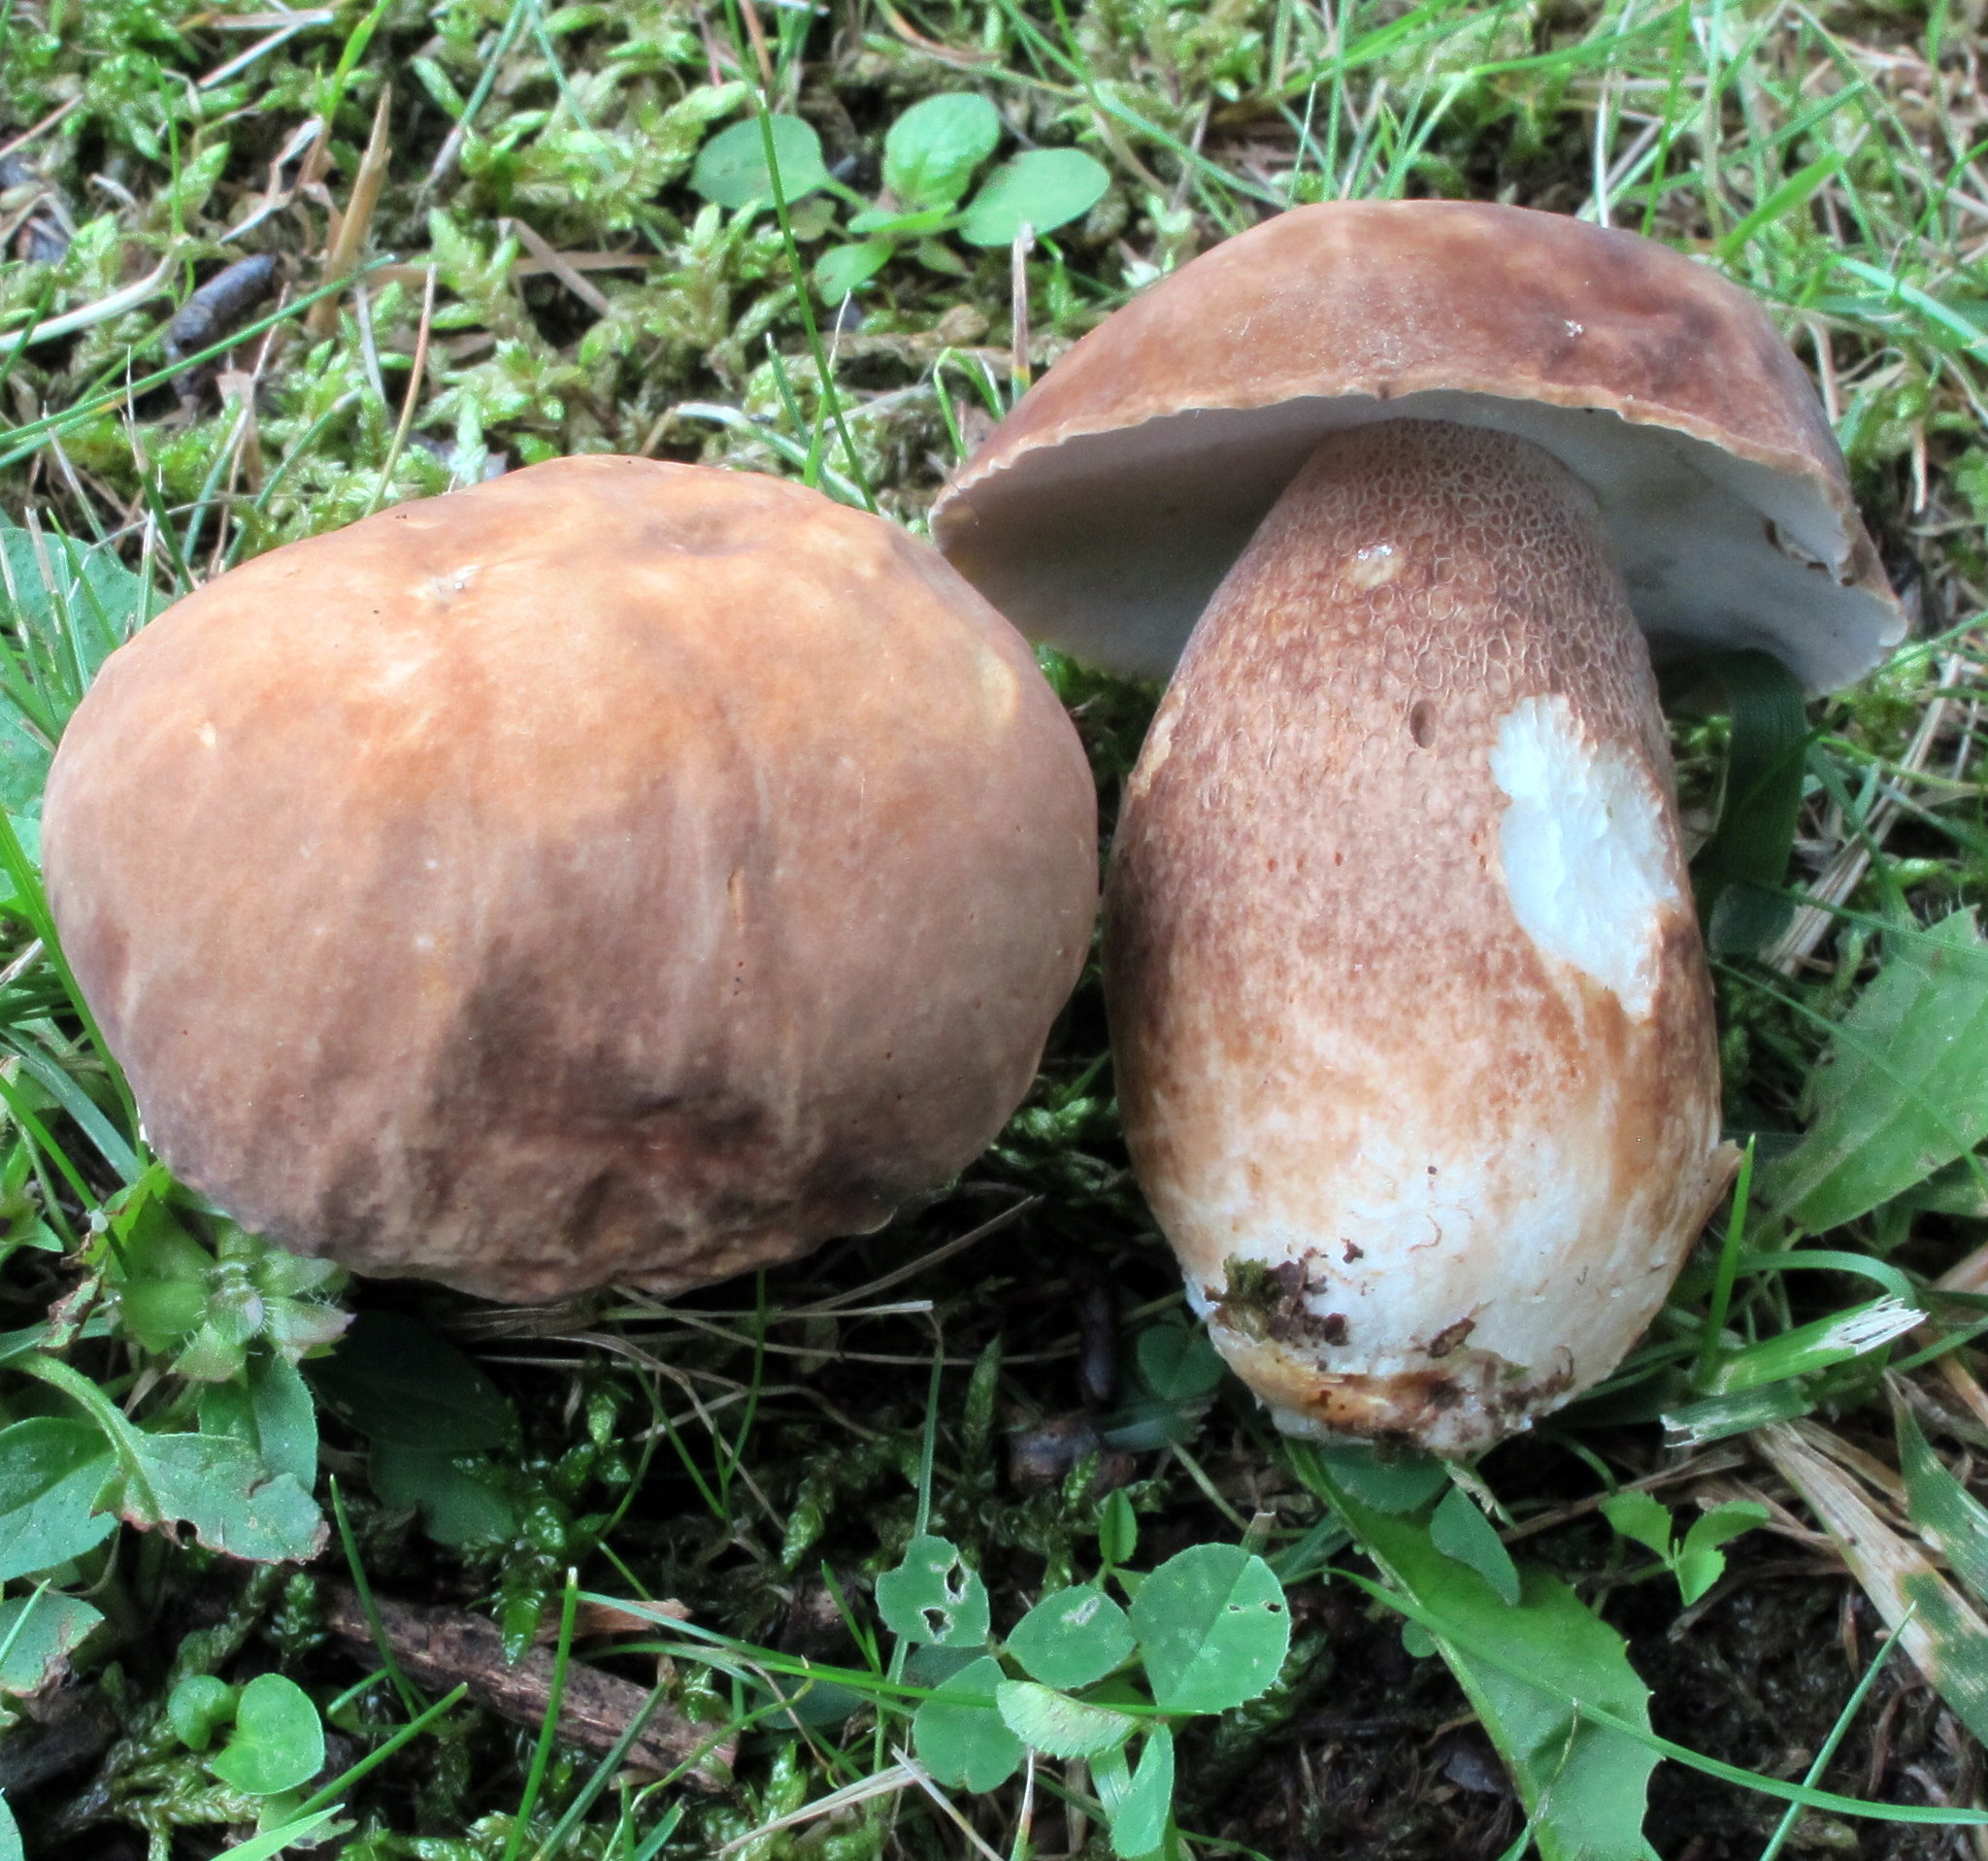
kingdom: Fungi
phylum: Basidiomycota
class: Agaricomycetes
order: Boletales
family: Boletaceae
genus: Boletus
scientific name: Boletus variipes
